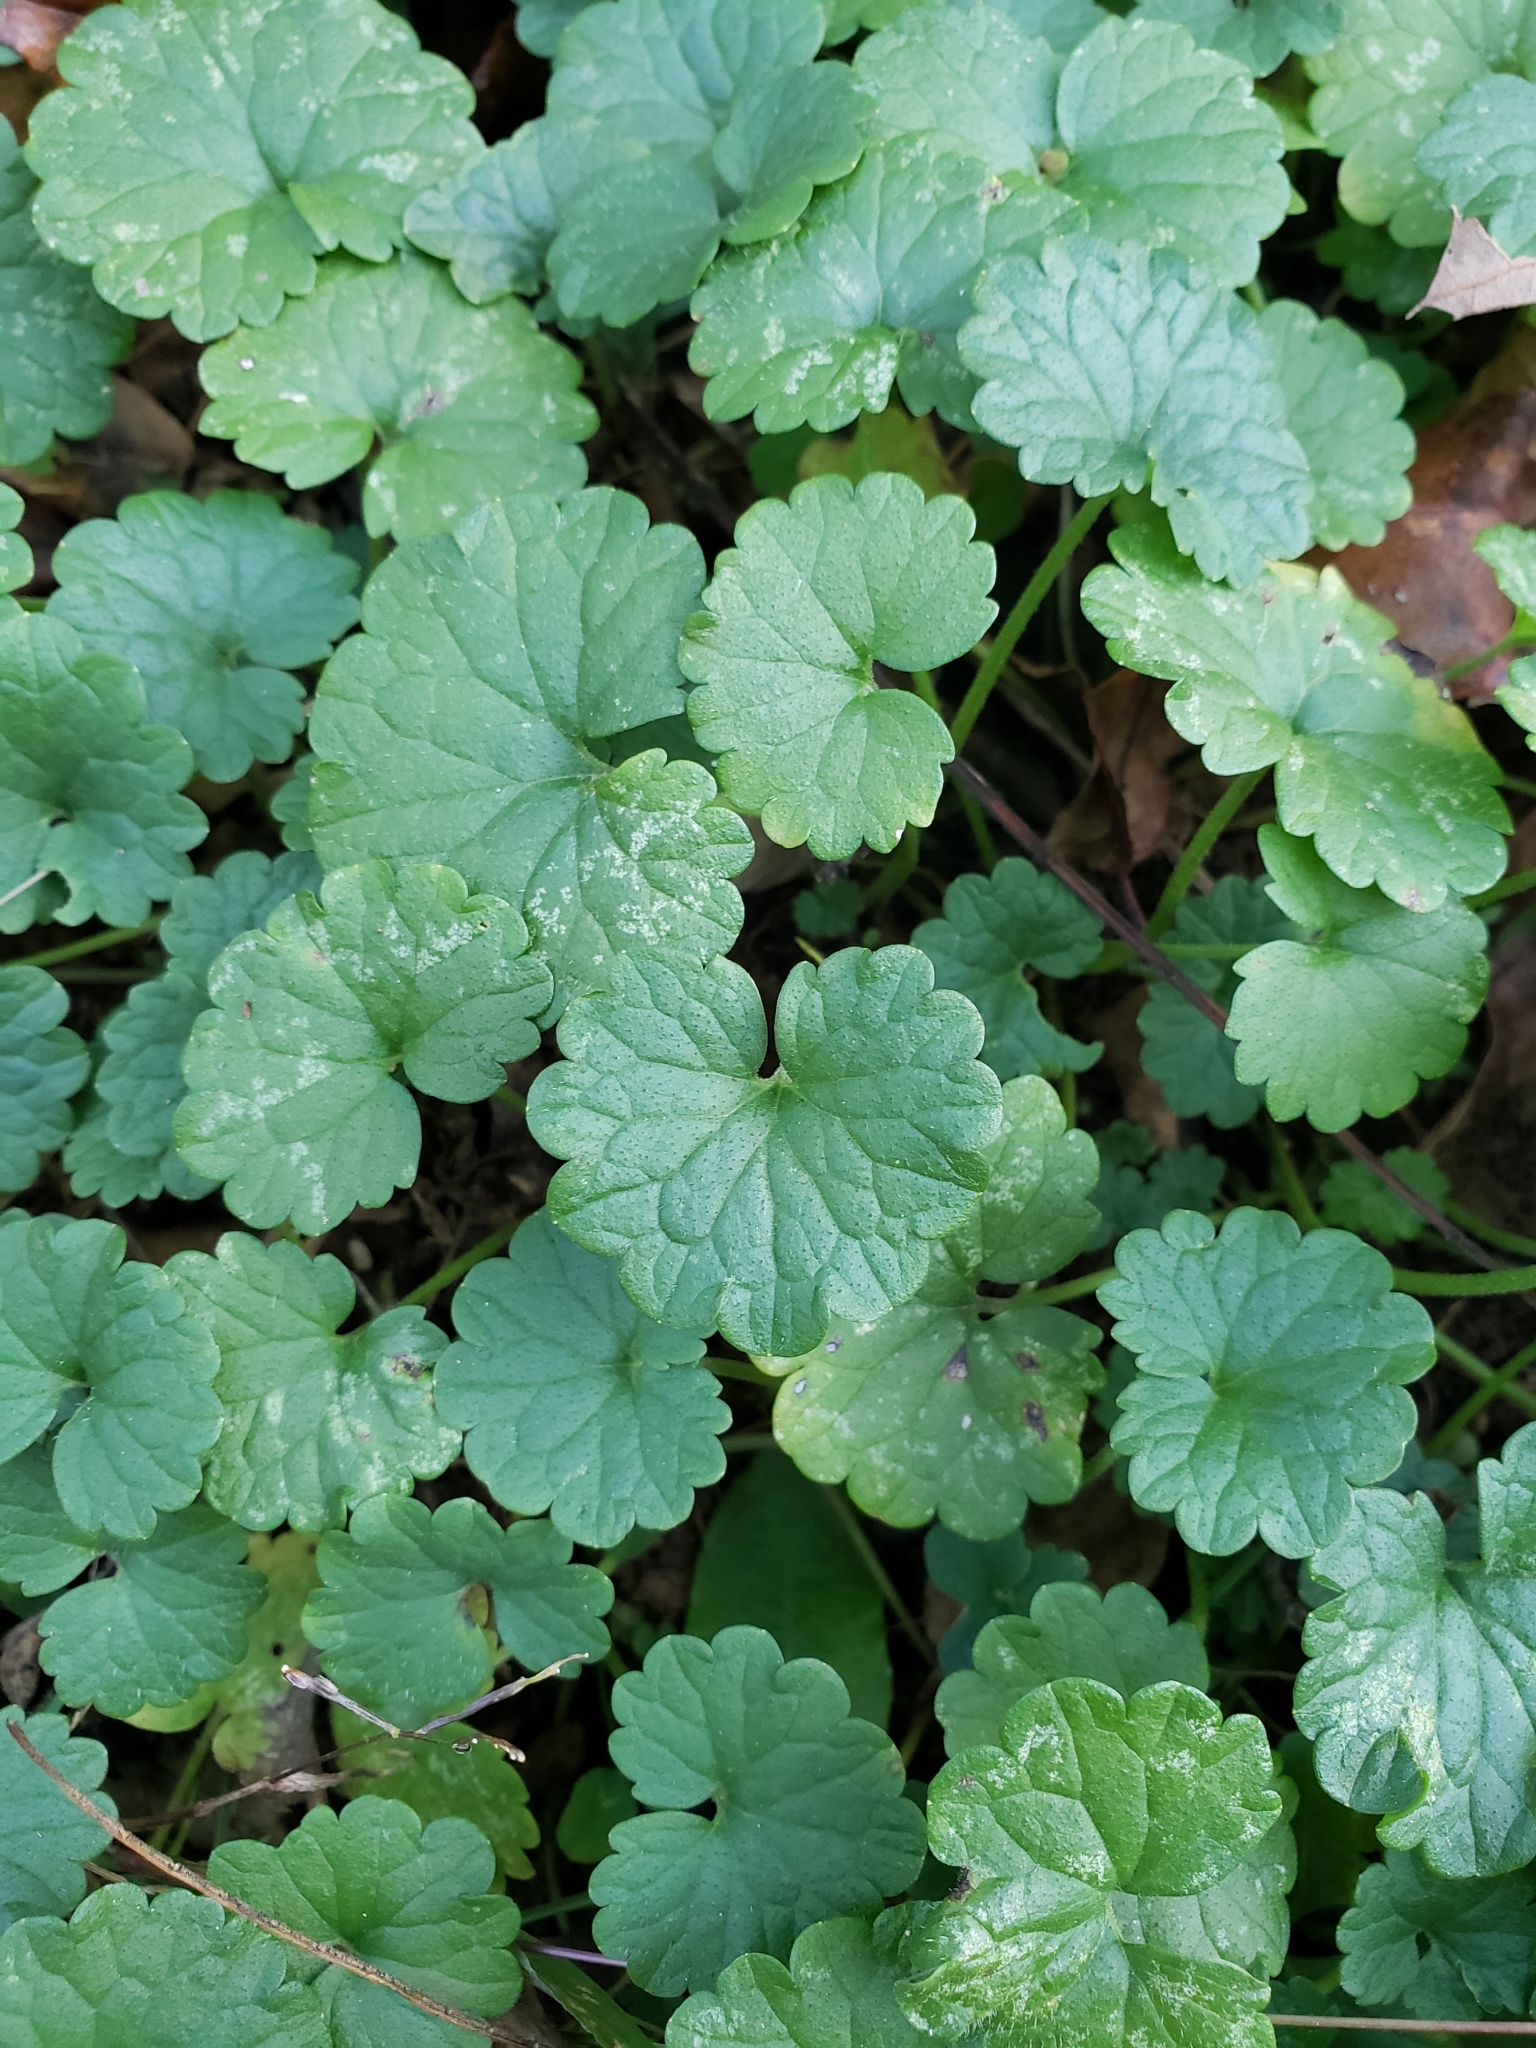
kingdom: Plantae
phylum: Tracheophyta
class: Magnoliopsida
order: Lamiales
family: Lamiaceae
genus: Glechoma
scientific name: Glechoma hederacea
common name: Ground ivy
